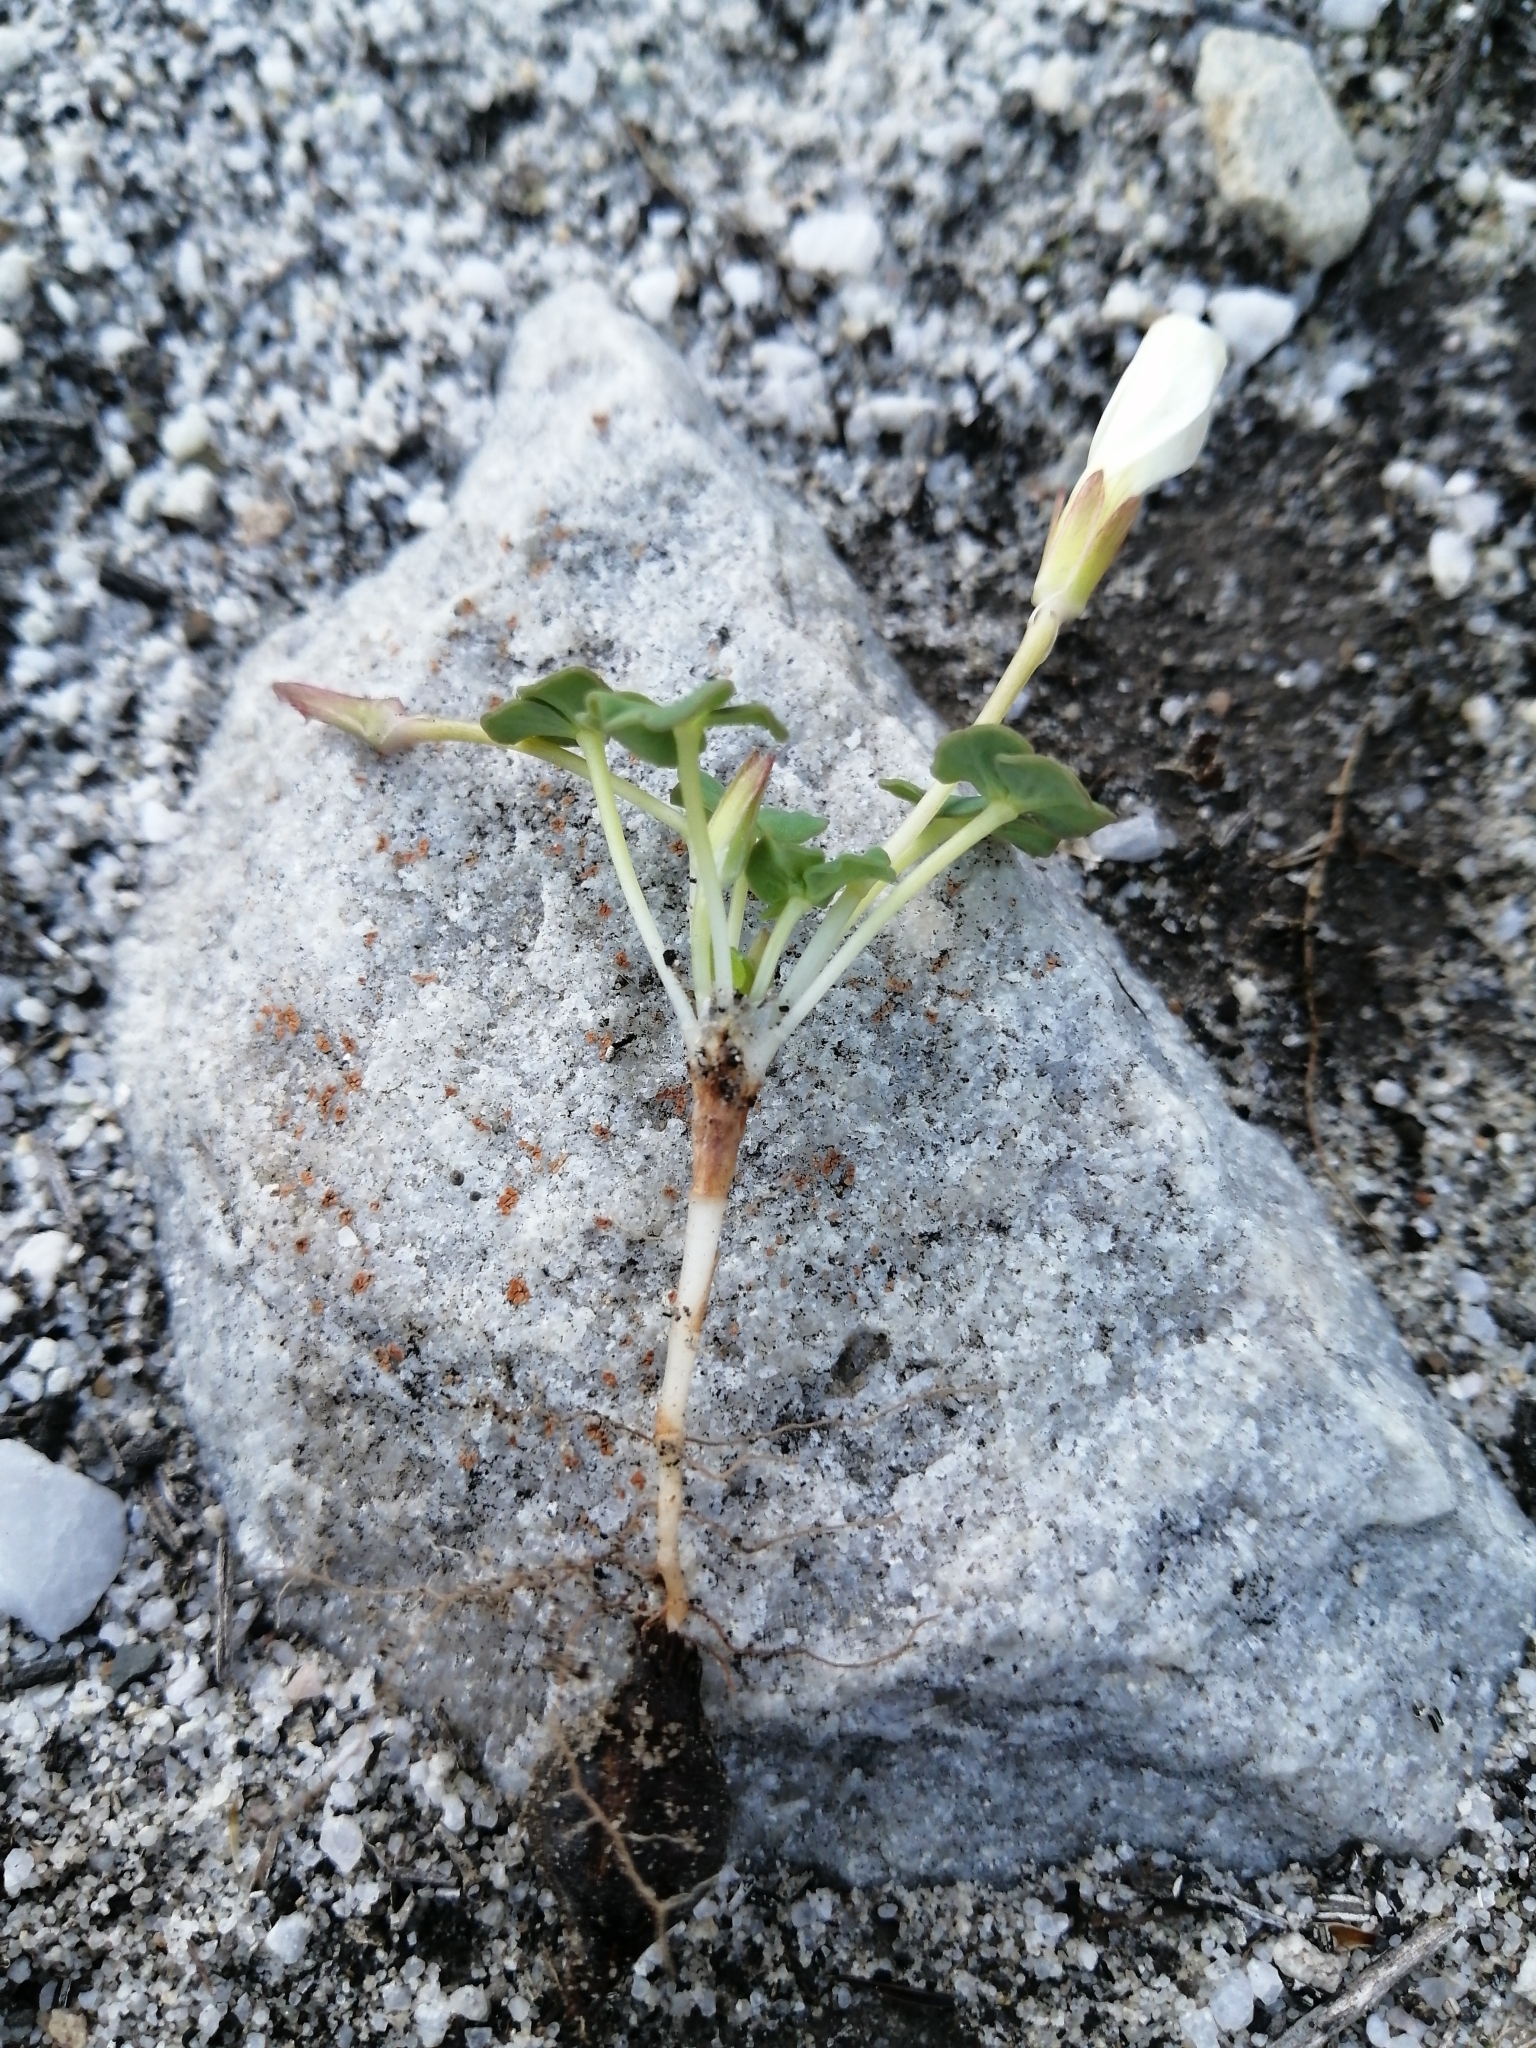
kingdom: Plantae
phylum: Tracheophyta
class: Magnoliopsida
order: Oxalidales
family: Oxalidaceae
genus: Oxalis
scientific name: Oxalis depressa
